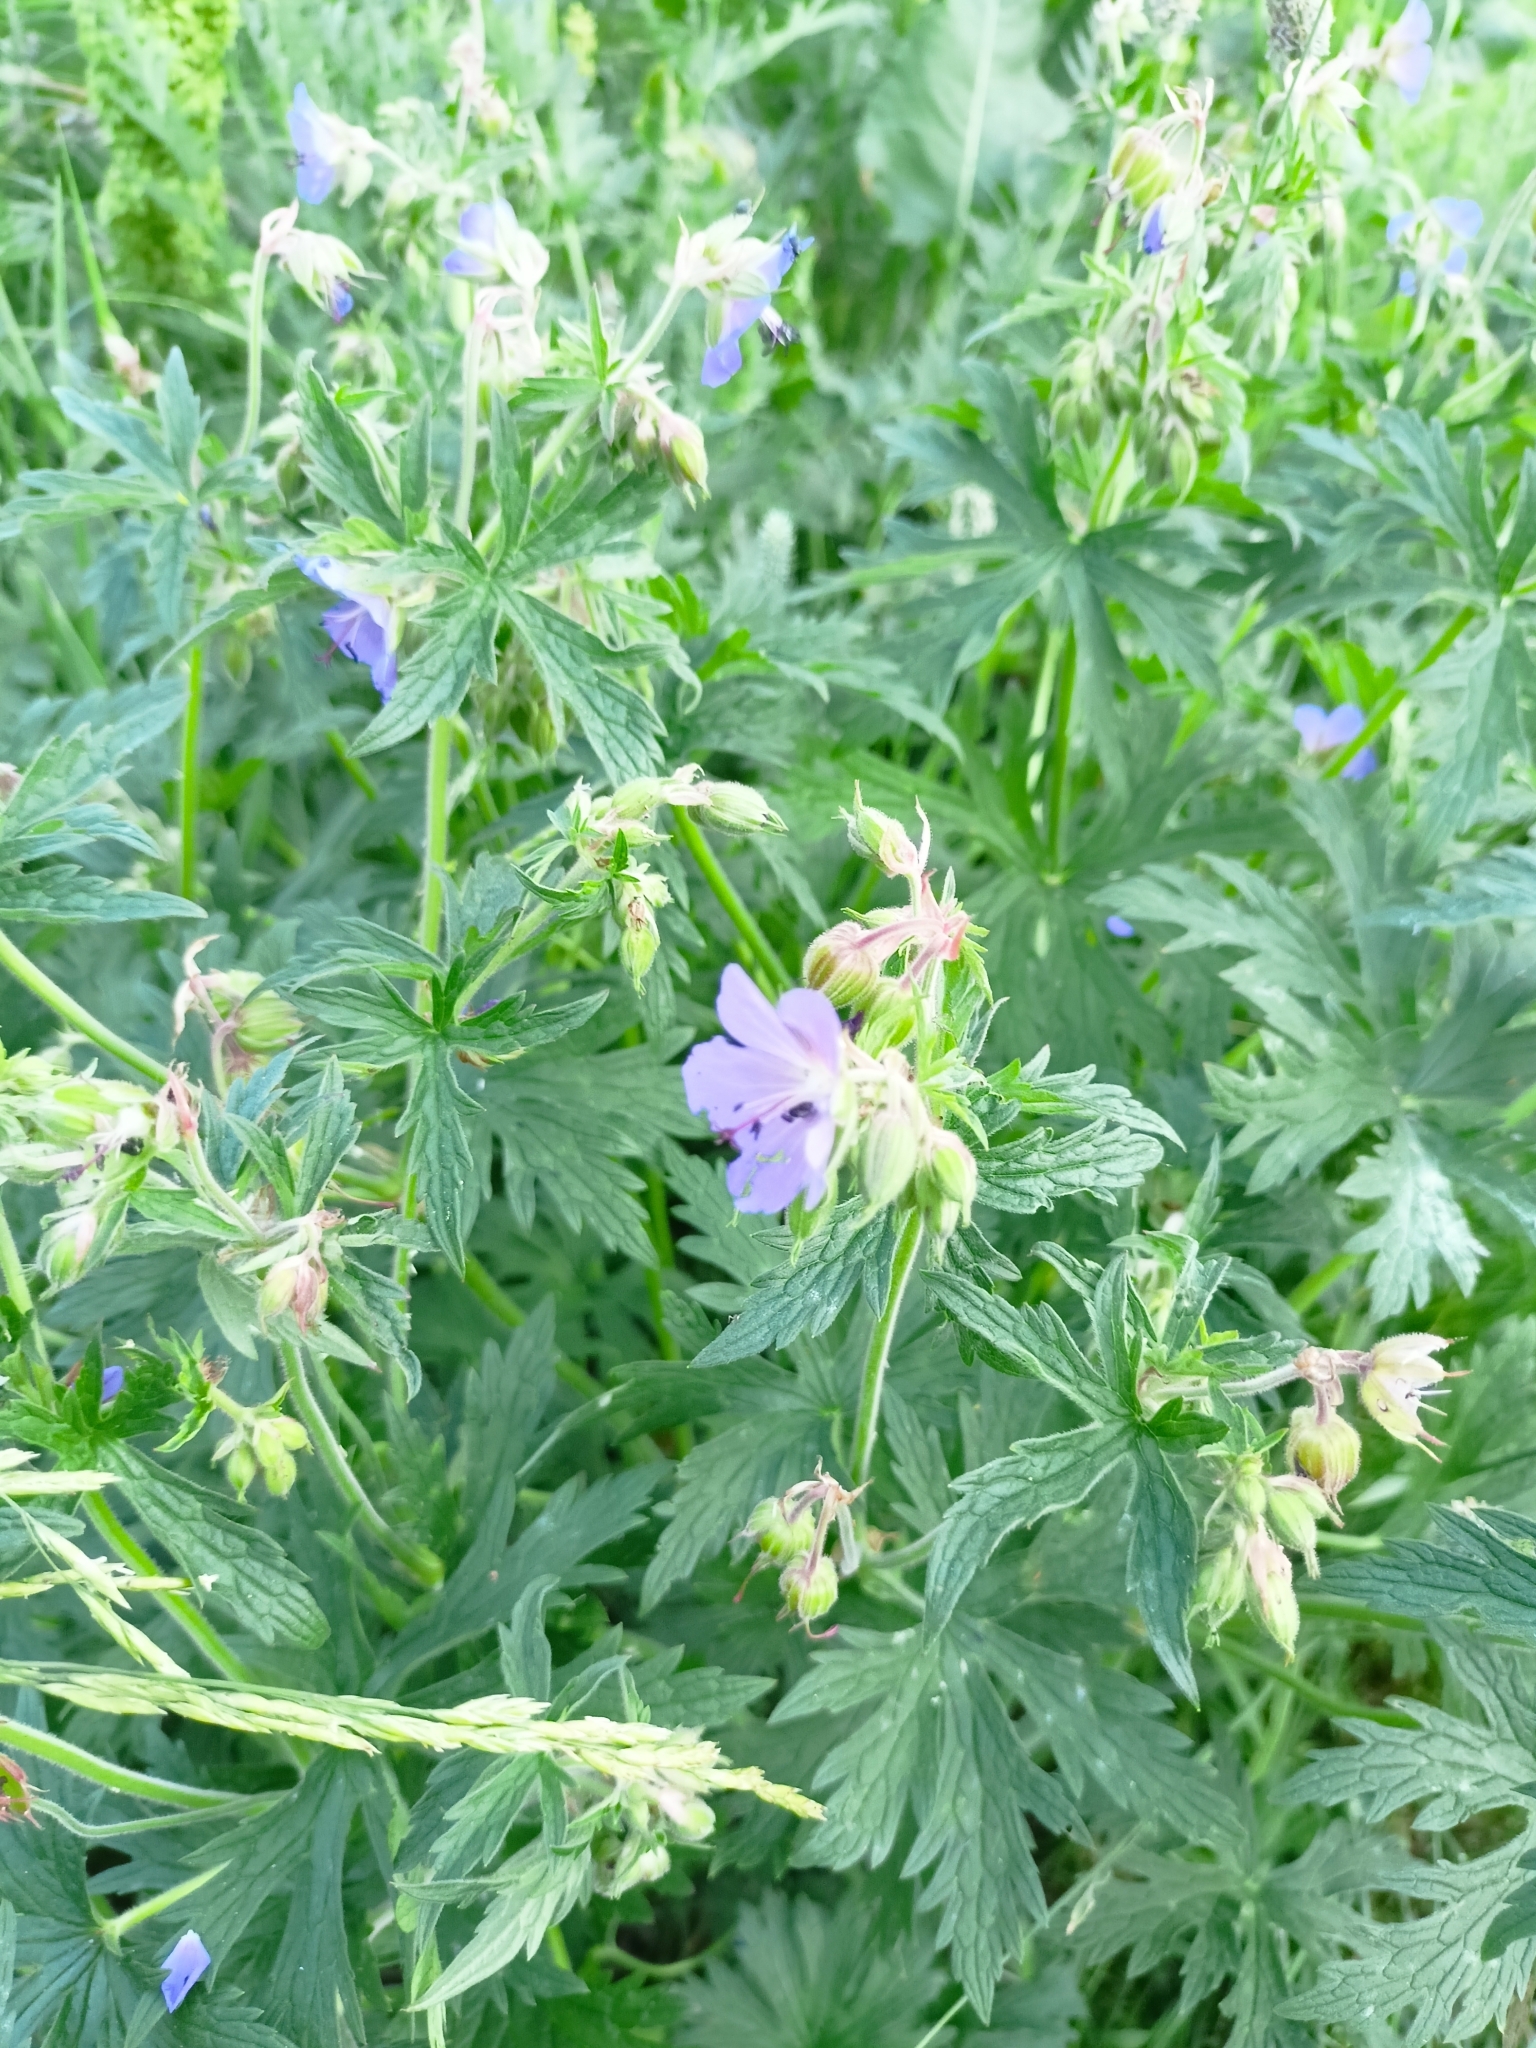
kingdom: Plantae
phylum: Tracheophyta
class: Magnoliopsida
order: Geraniales
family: Geraniaceae
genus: Geranium
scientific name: Geranium pratense
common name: Meadow crane's-bill
